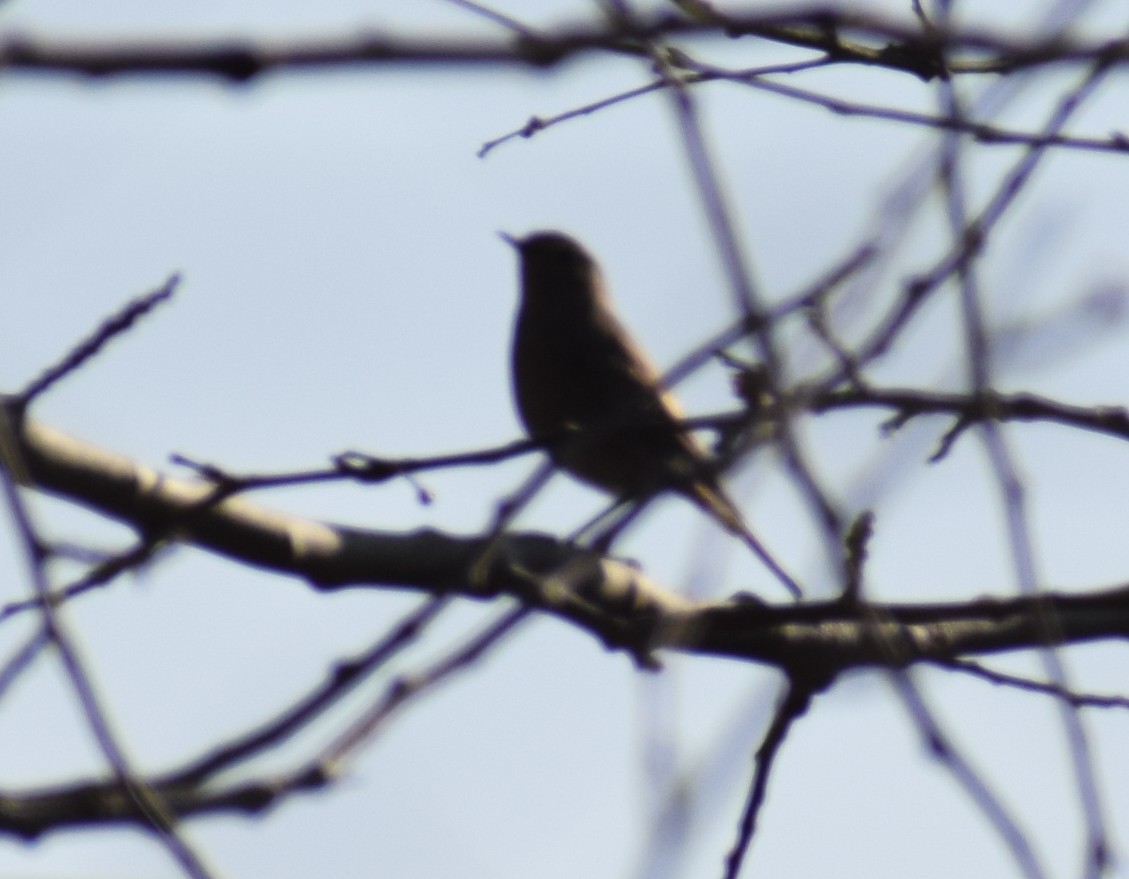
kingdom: Animalia
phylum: Chordata
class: Aves
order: Passeriformes
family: Muscicapidae
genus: Phoenicurus
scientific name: Phoenicurus ochruros
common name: Black redstart
